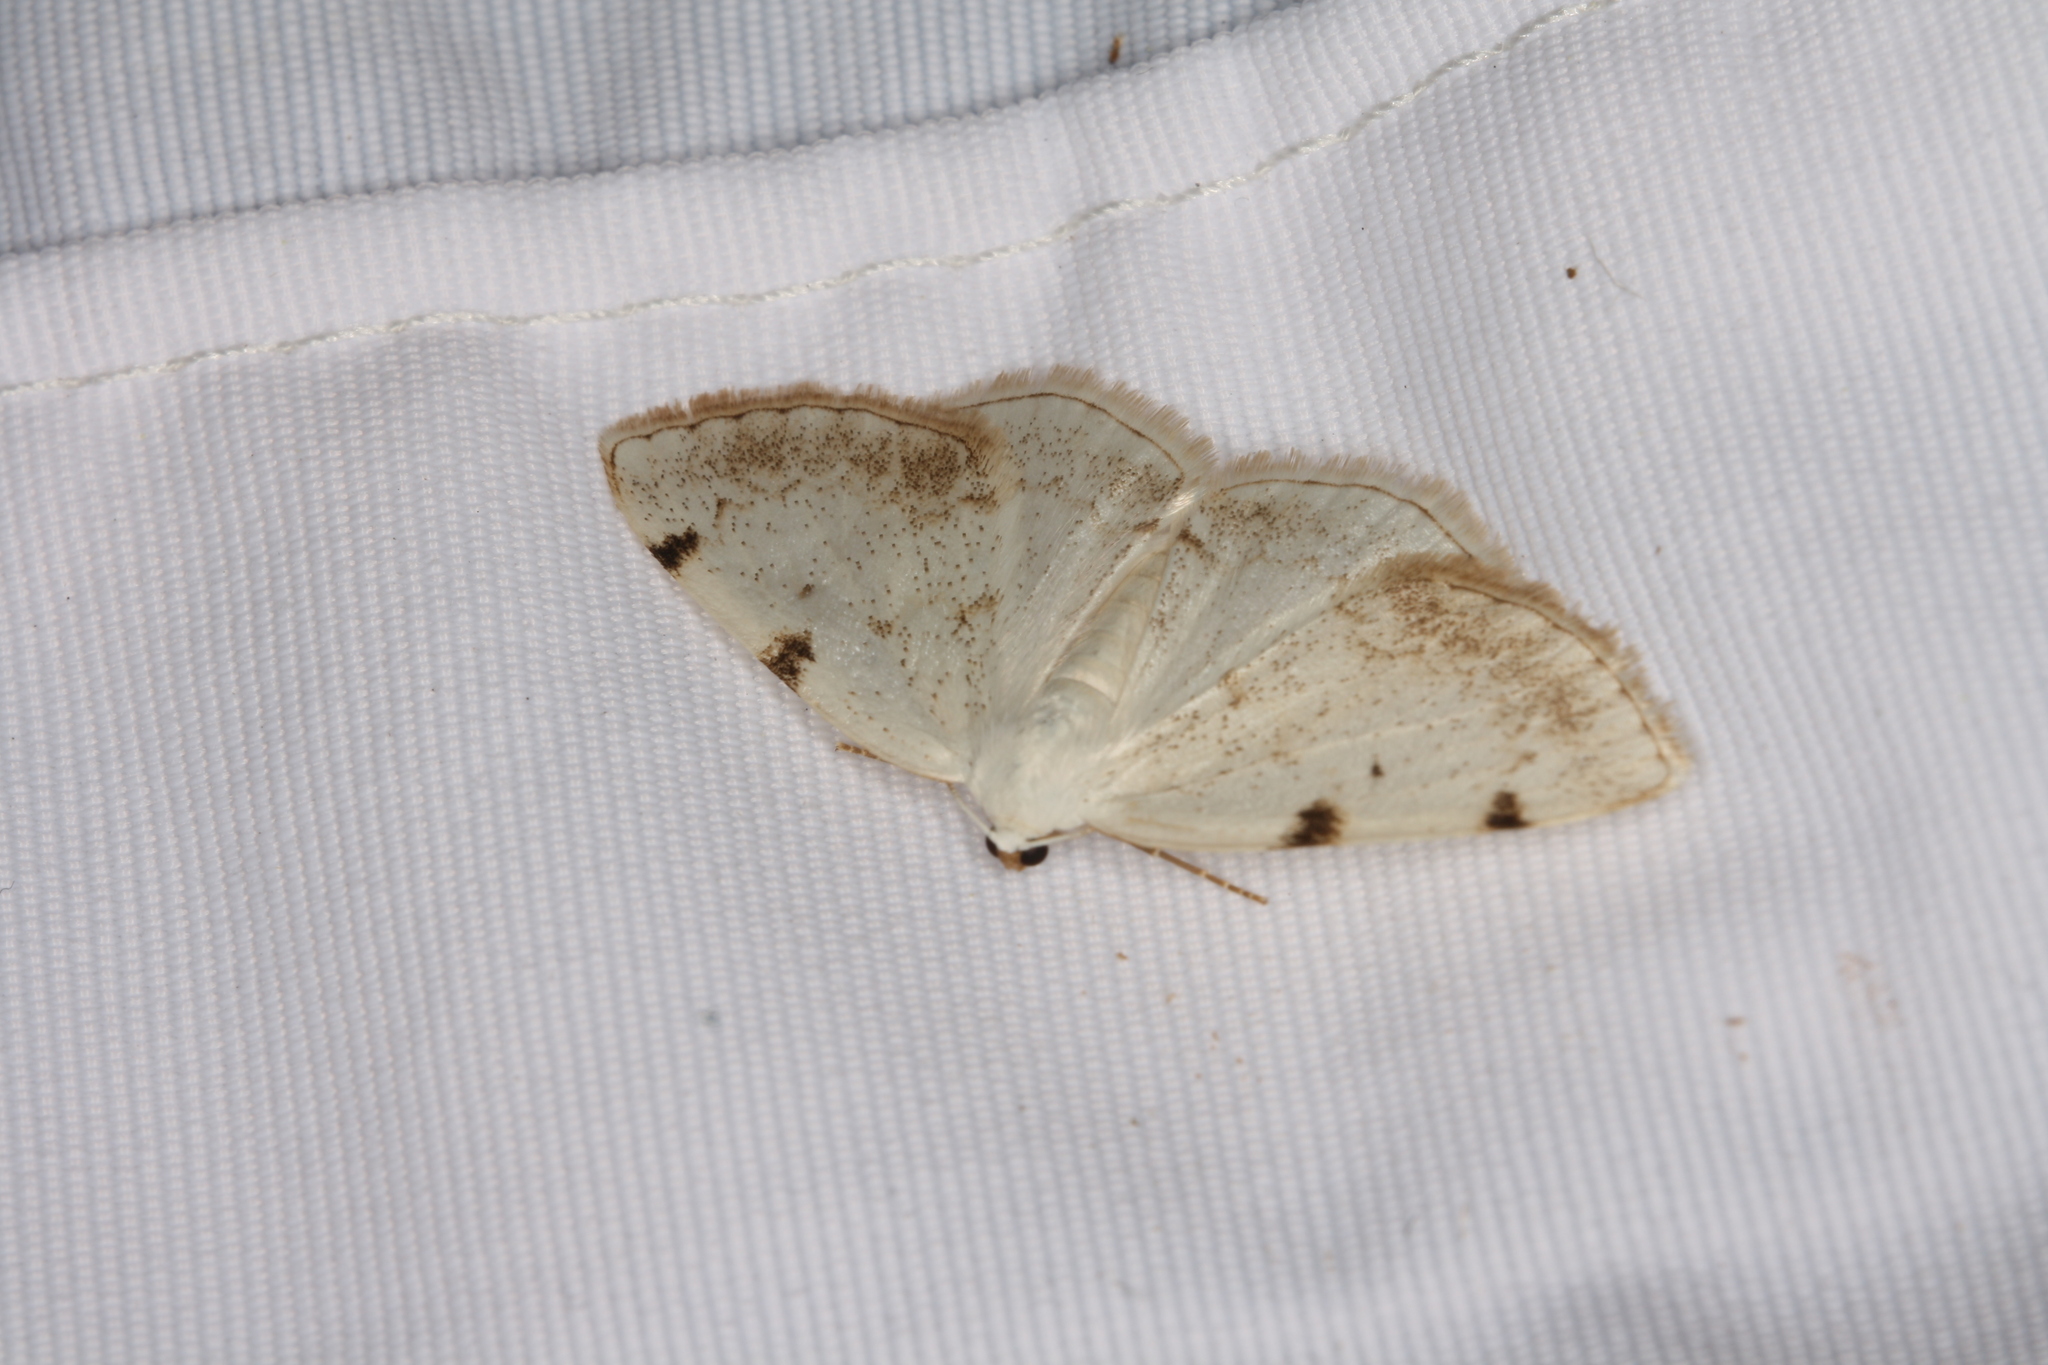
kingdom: Animalia
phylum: Arthropoda
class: Insecta
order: Lepidoptera
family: Geometridae
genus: Lomographa
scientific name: Lomographa bimaculata
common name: White-pinion spotted
